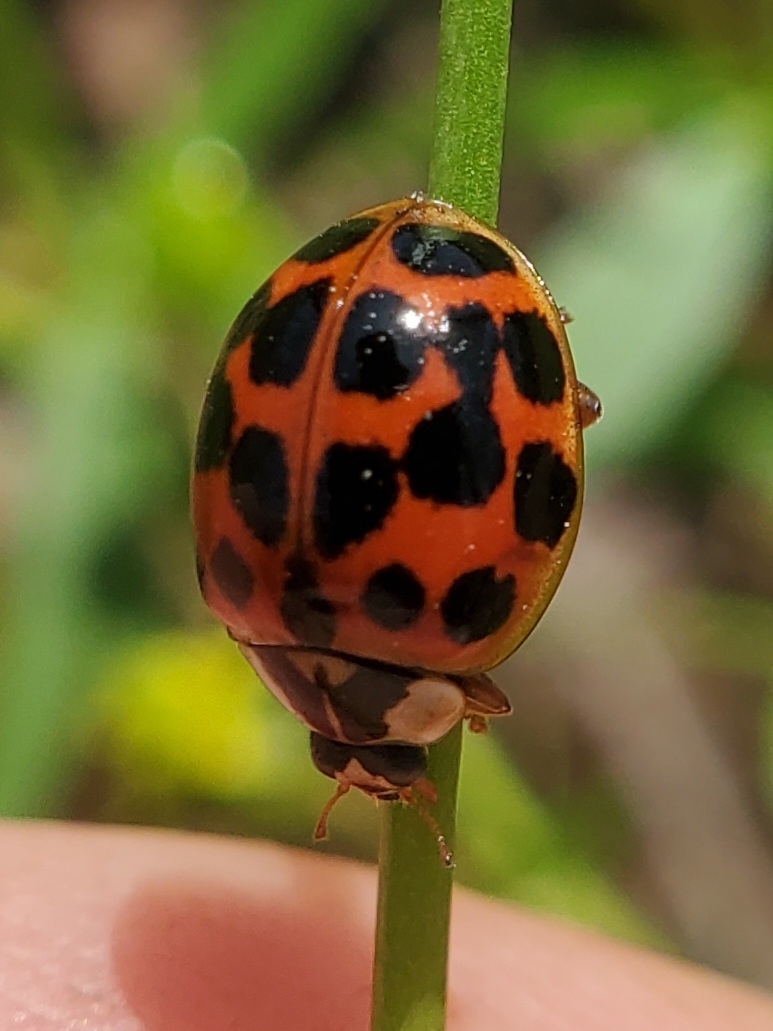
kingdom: Animalia
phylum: Arthropoda
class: Insecta
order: Coleoptera
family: Coccinellidae
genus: Harmonia
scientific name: Harmonia axyridis
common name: Harlequin ladybird
